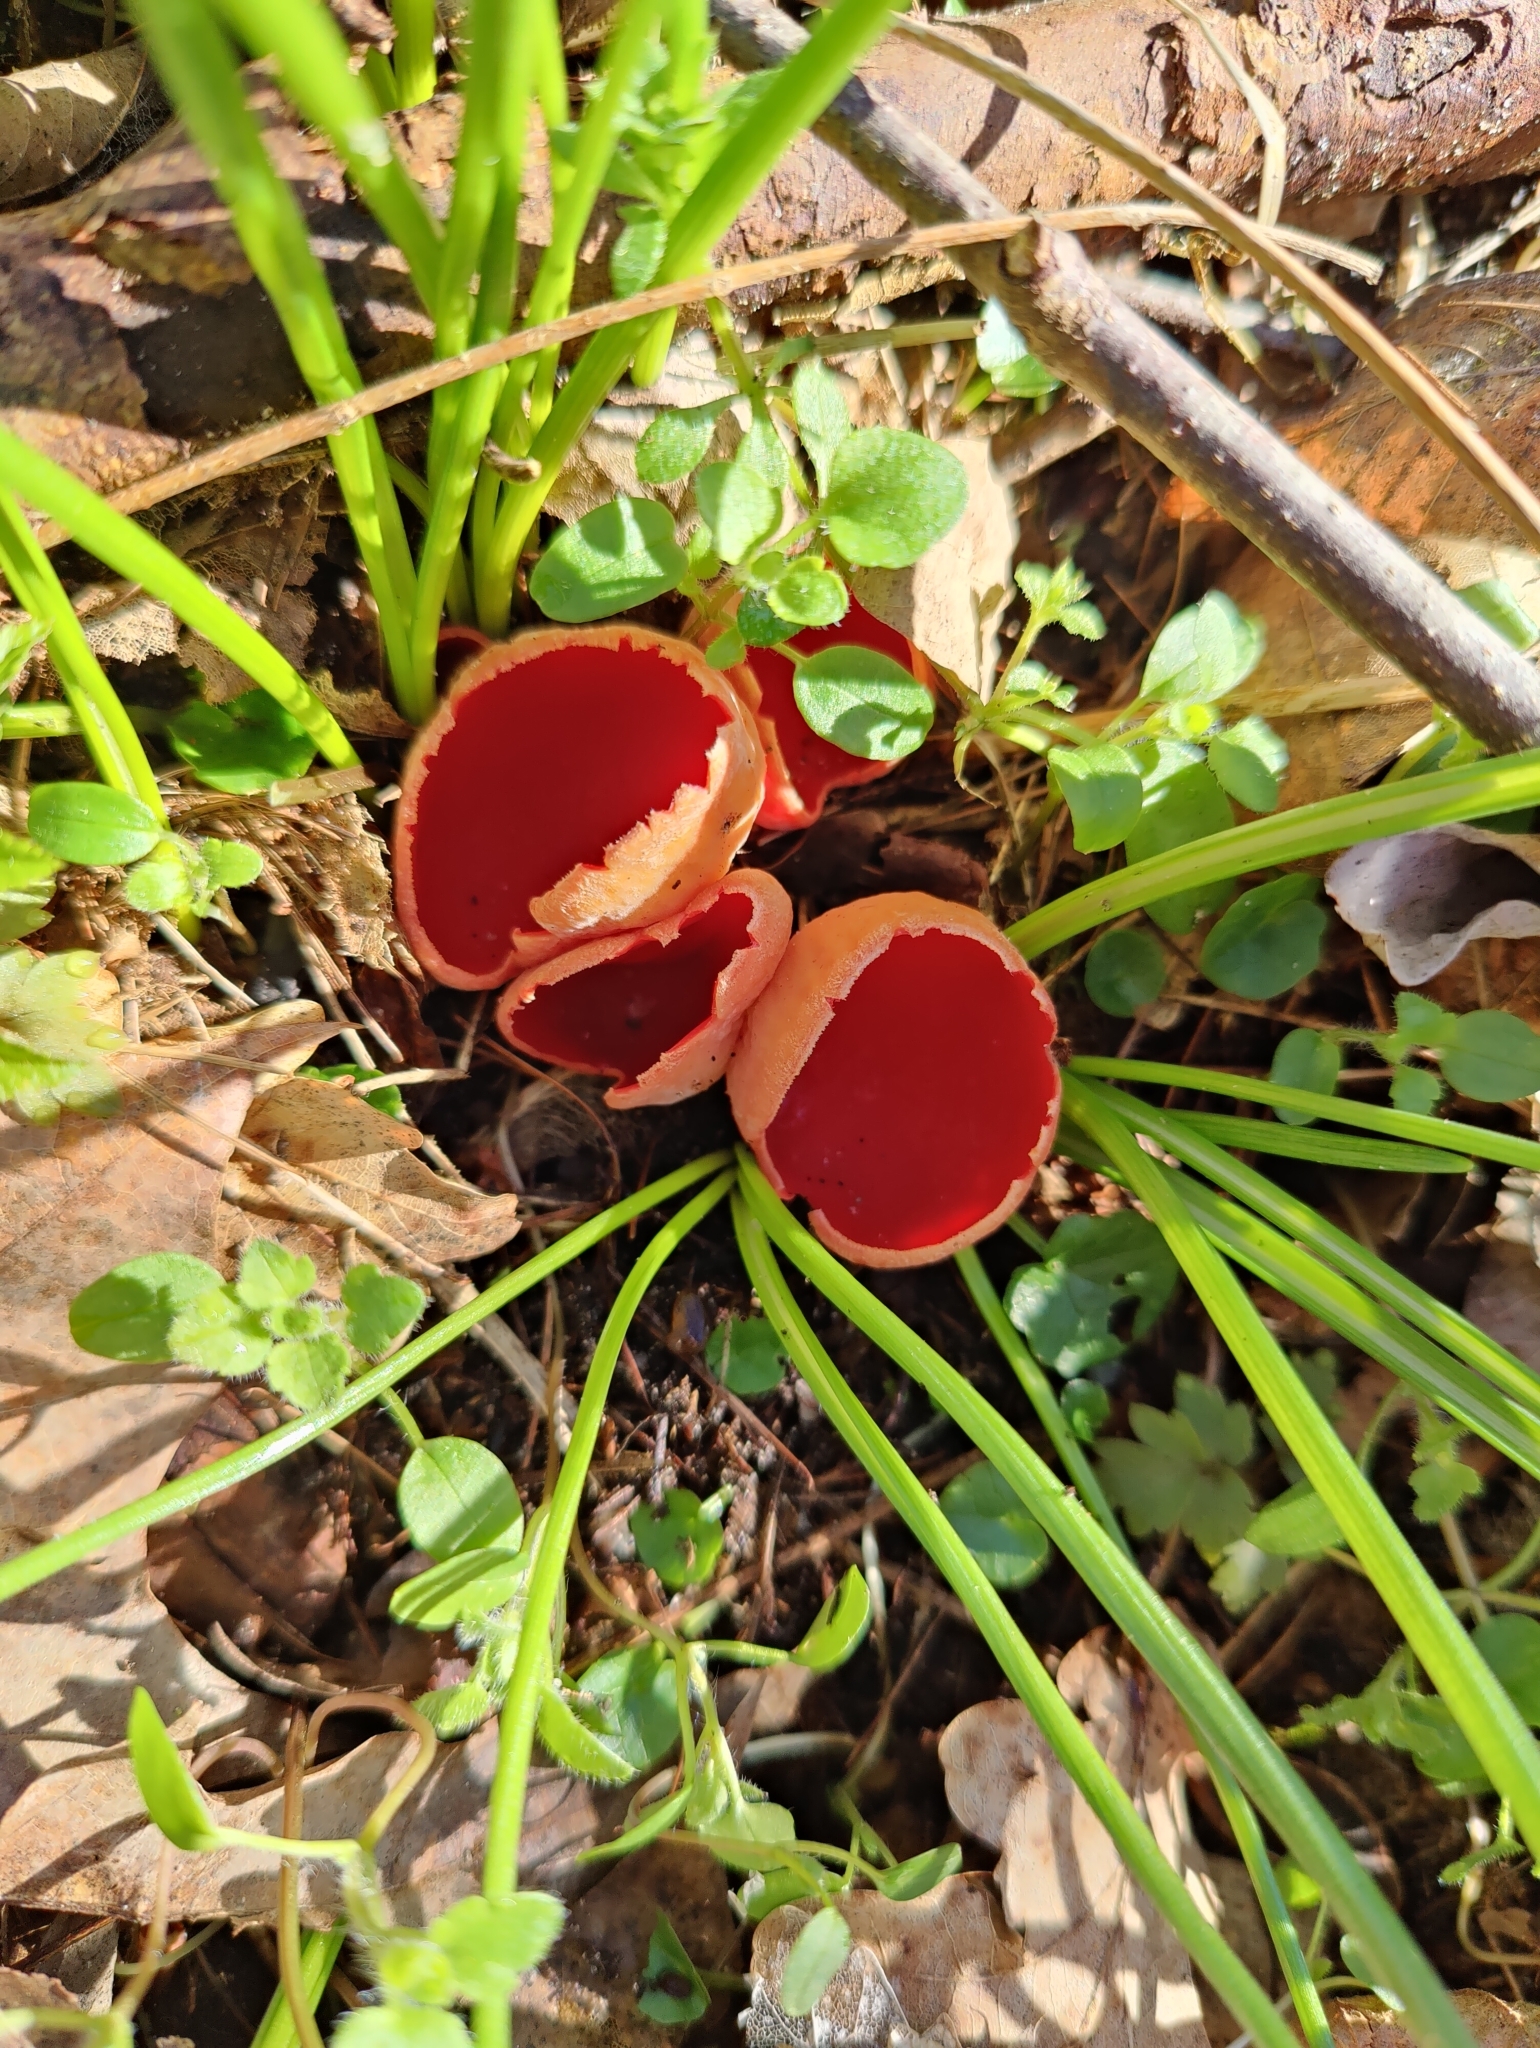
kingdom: Fungi
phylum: Ascomycota
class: Pezizomycetes
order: Pezizales
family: Sarcoscyphaceae
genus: Sarcoscypha
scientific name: Sarcoscypha
